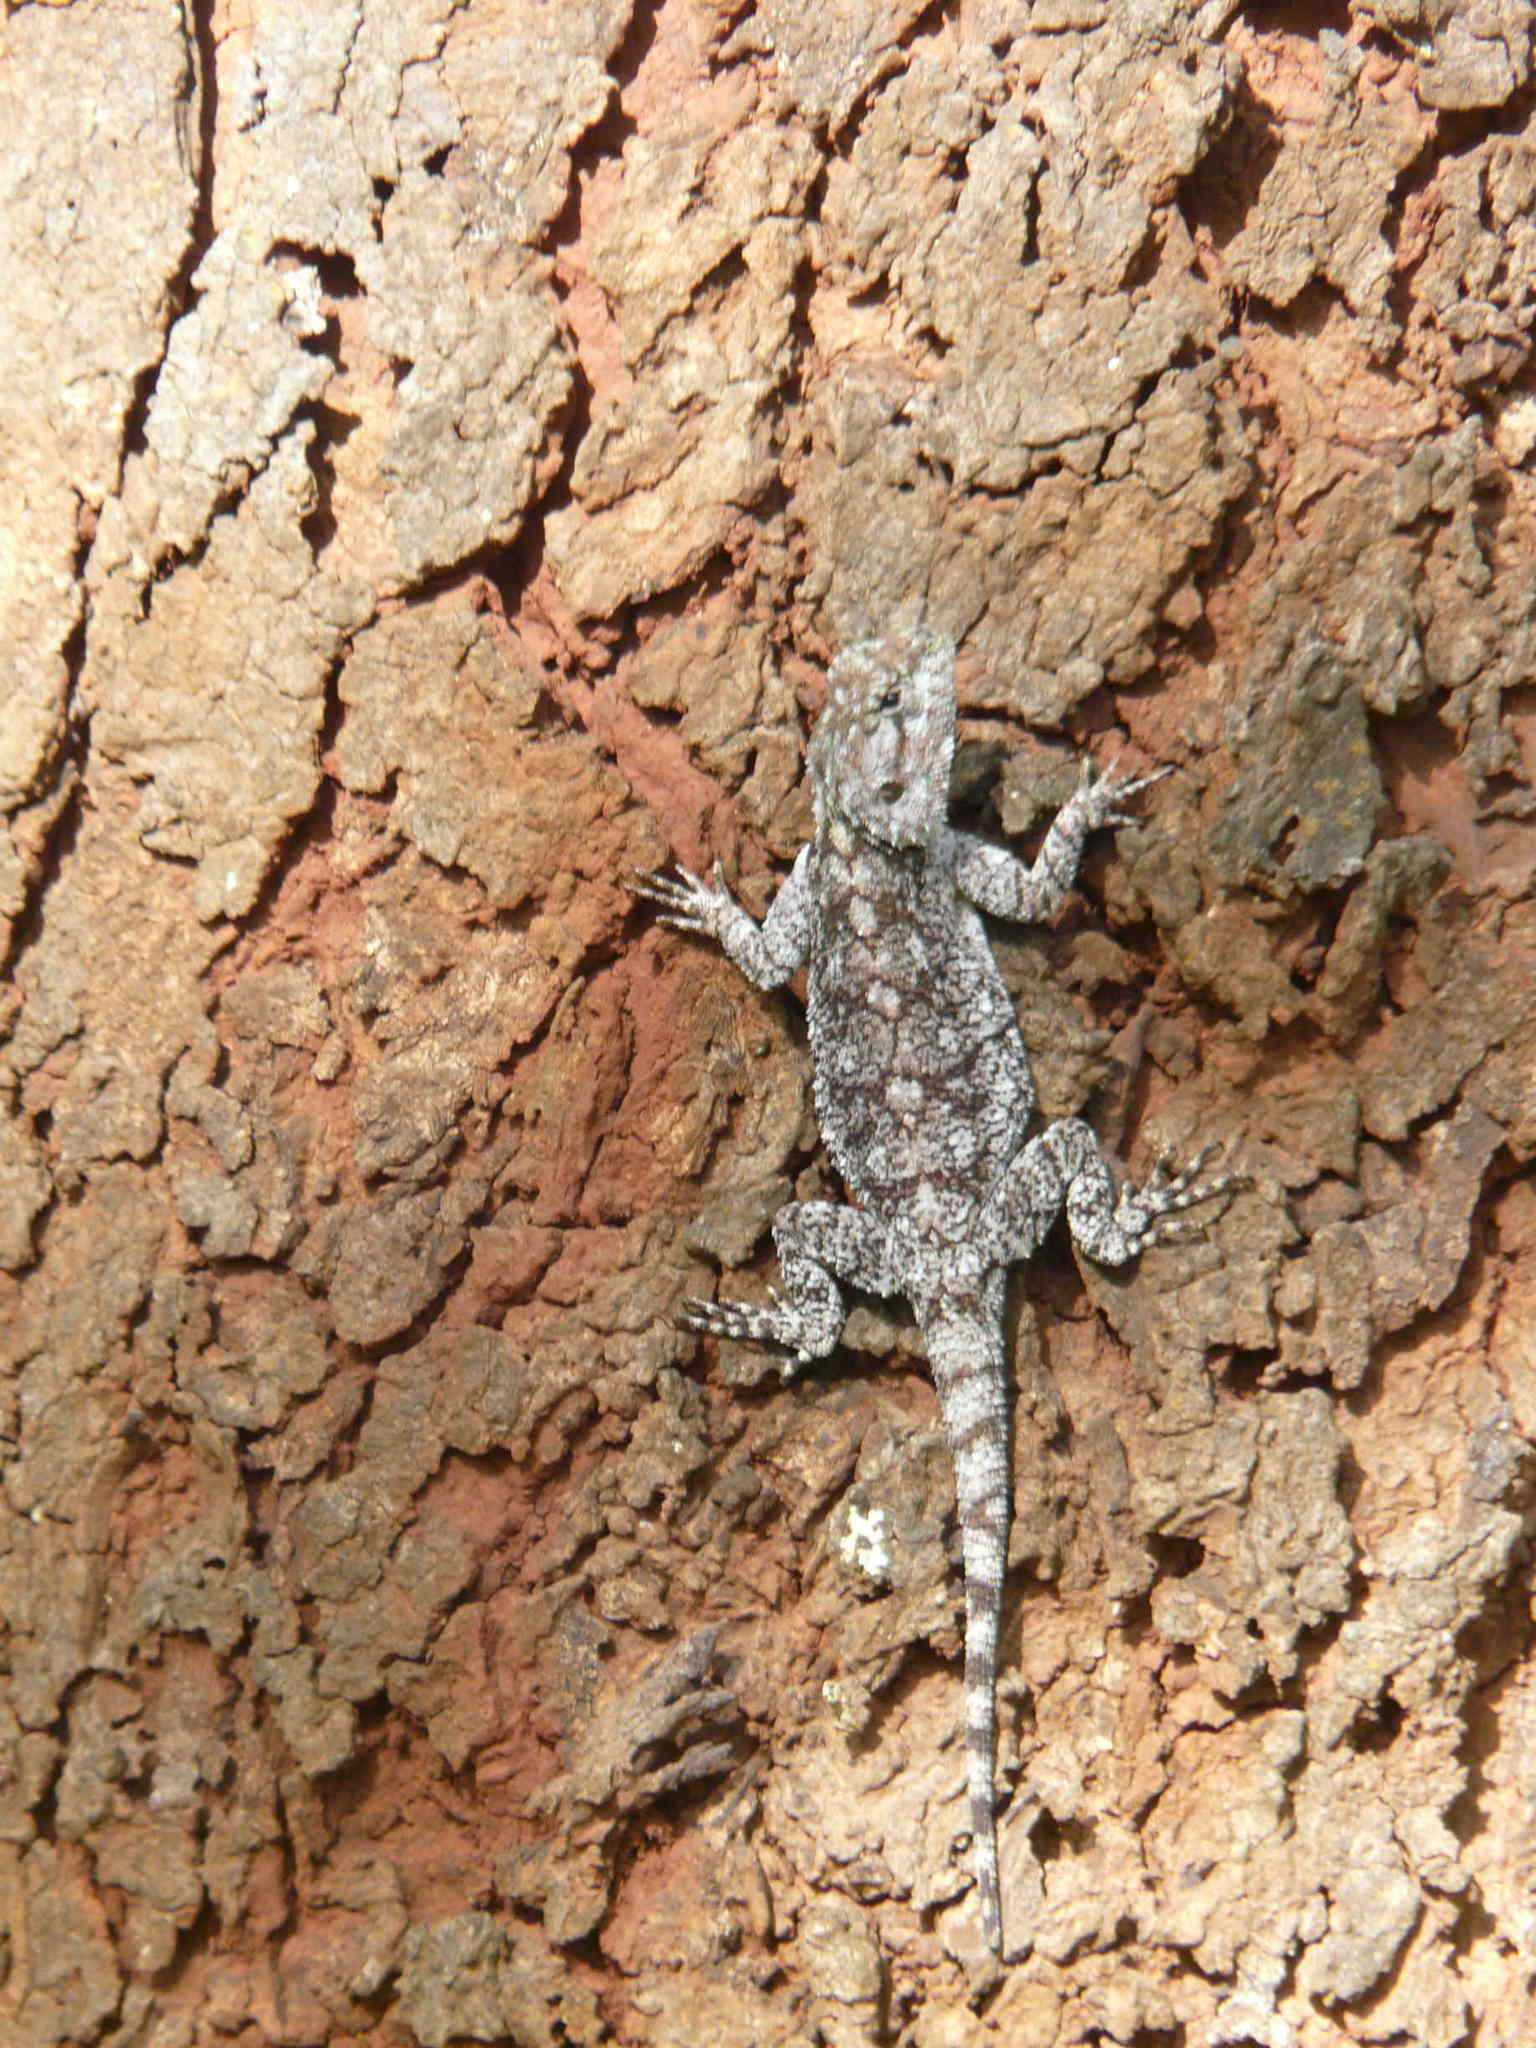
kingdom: Animalia
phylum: Chordata
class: Squamata
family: Agamidae
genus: Acanthocercus
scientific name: Acanthocercus atricollis
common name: Southern tree agama
